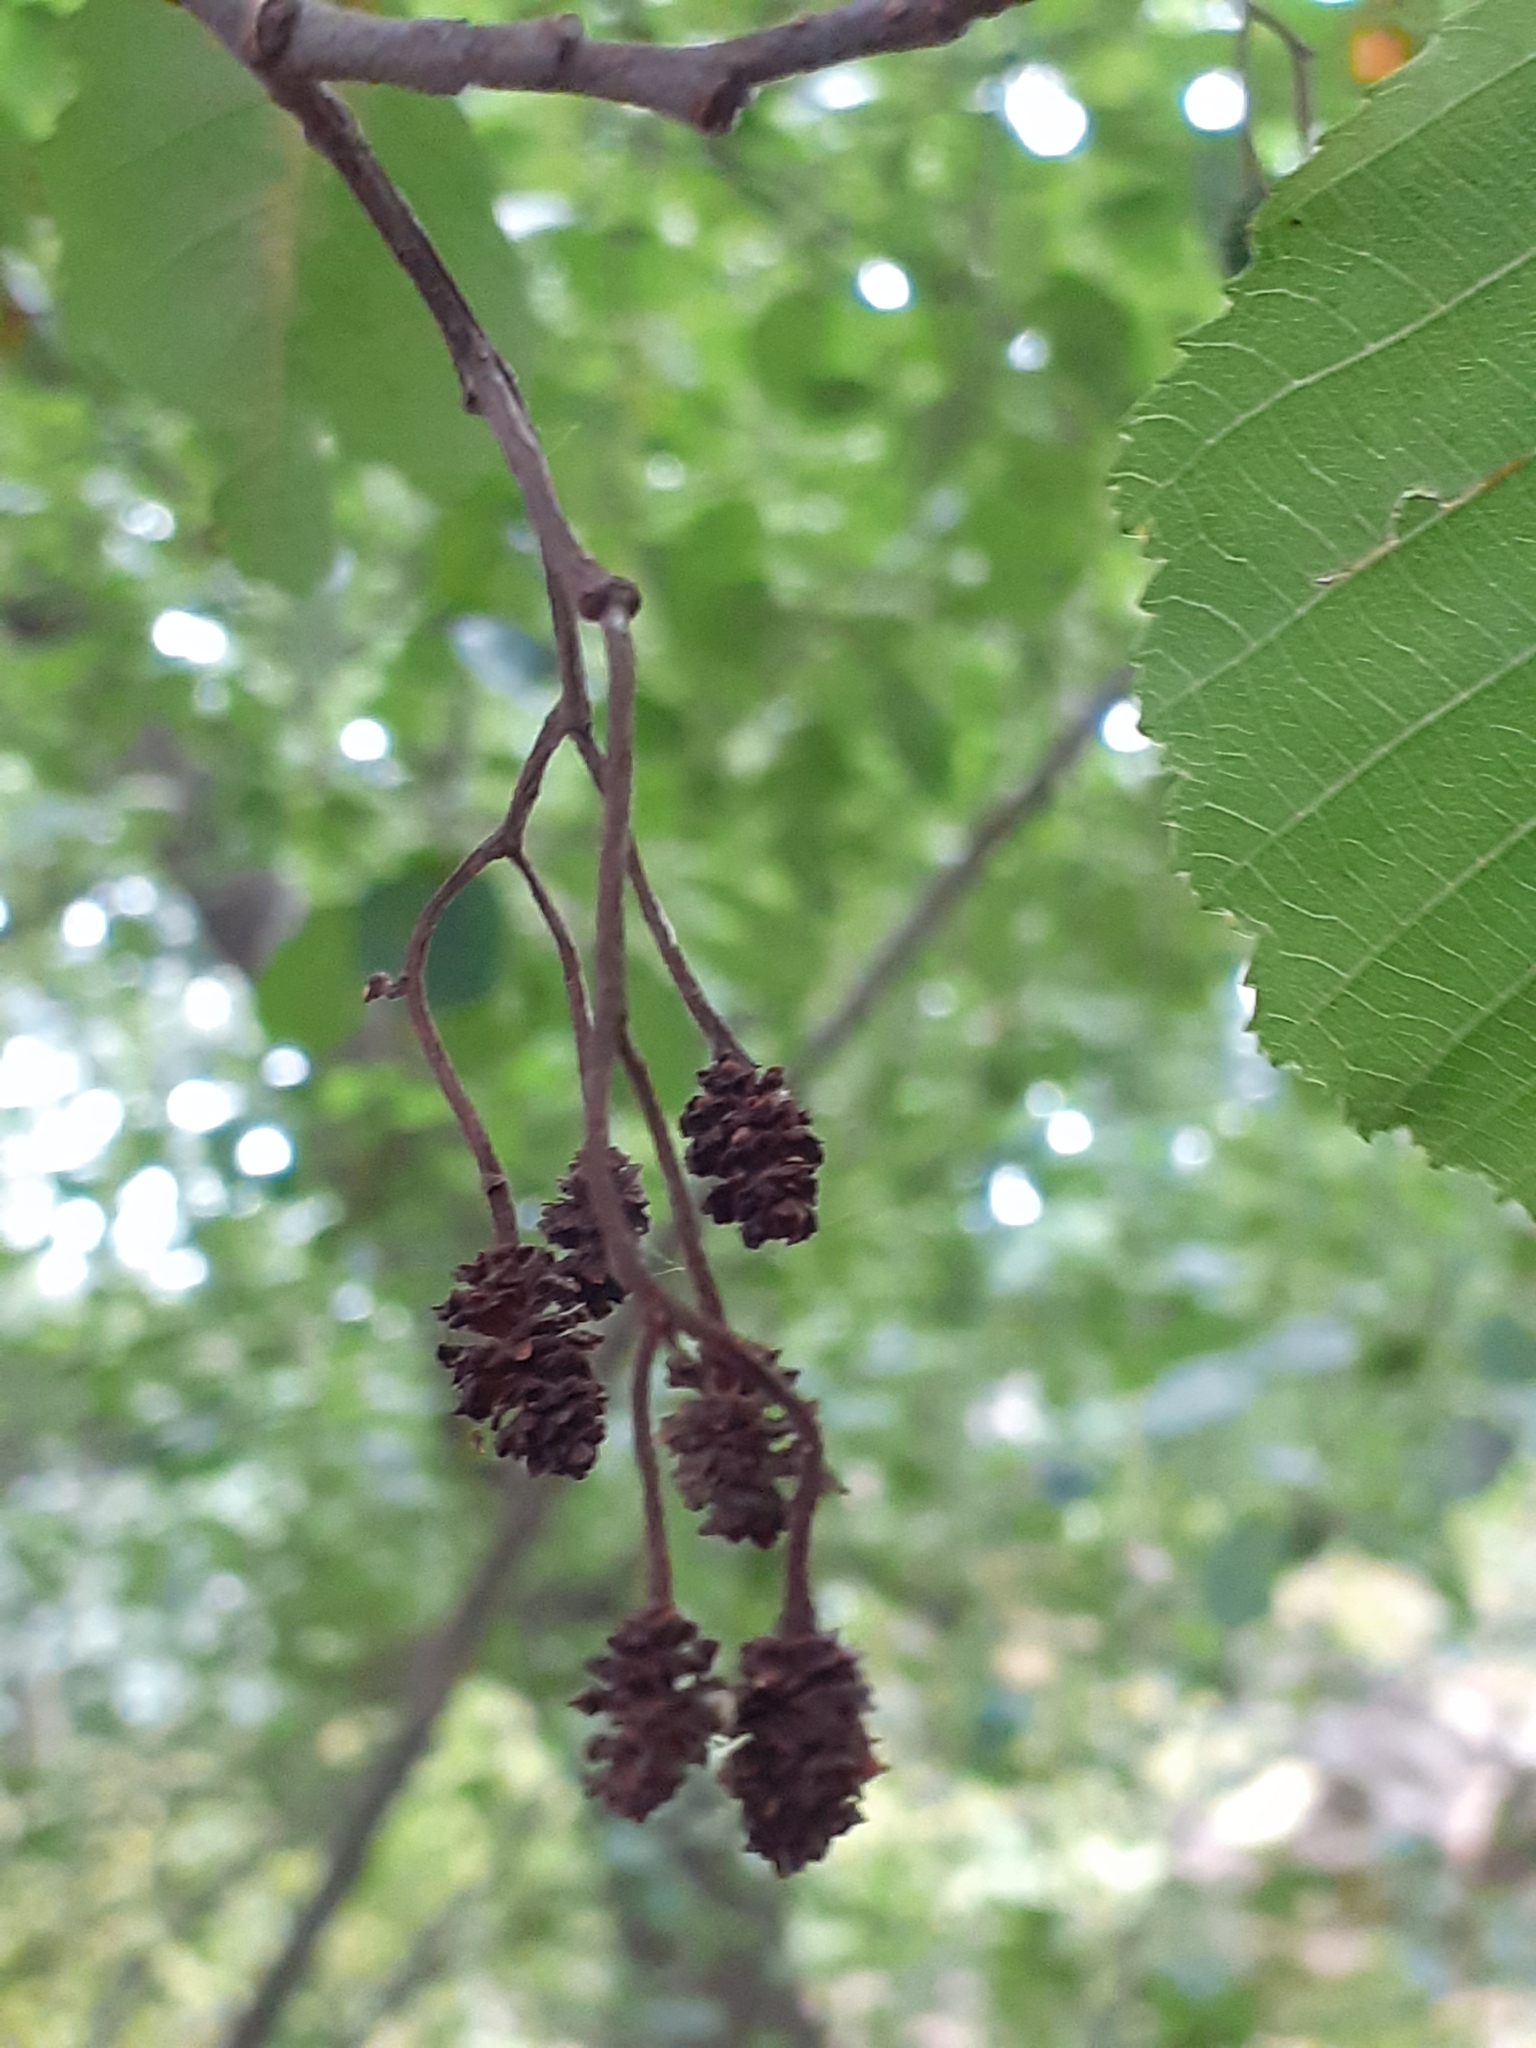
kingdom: Plantae
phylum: Tracheophyta
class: Magnoliopsida
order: Fagales
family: Betulaceae
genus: Alnus
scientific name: Alnus glutinosa
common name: Black alder
